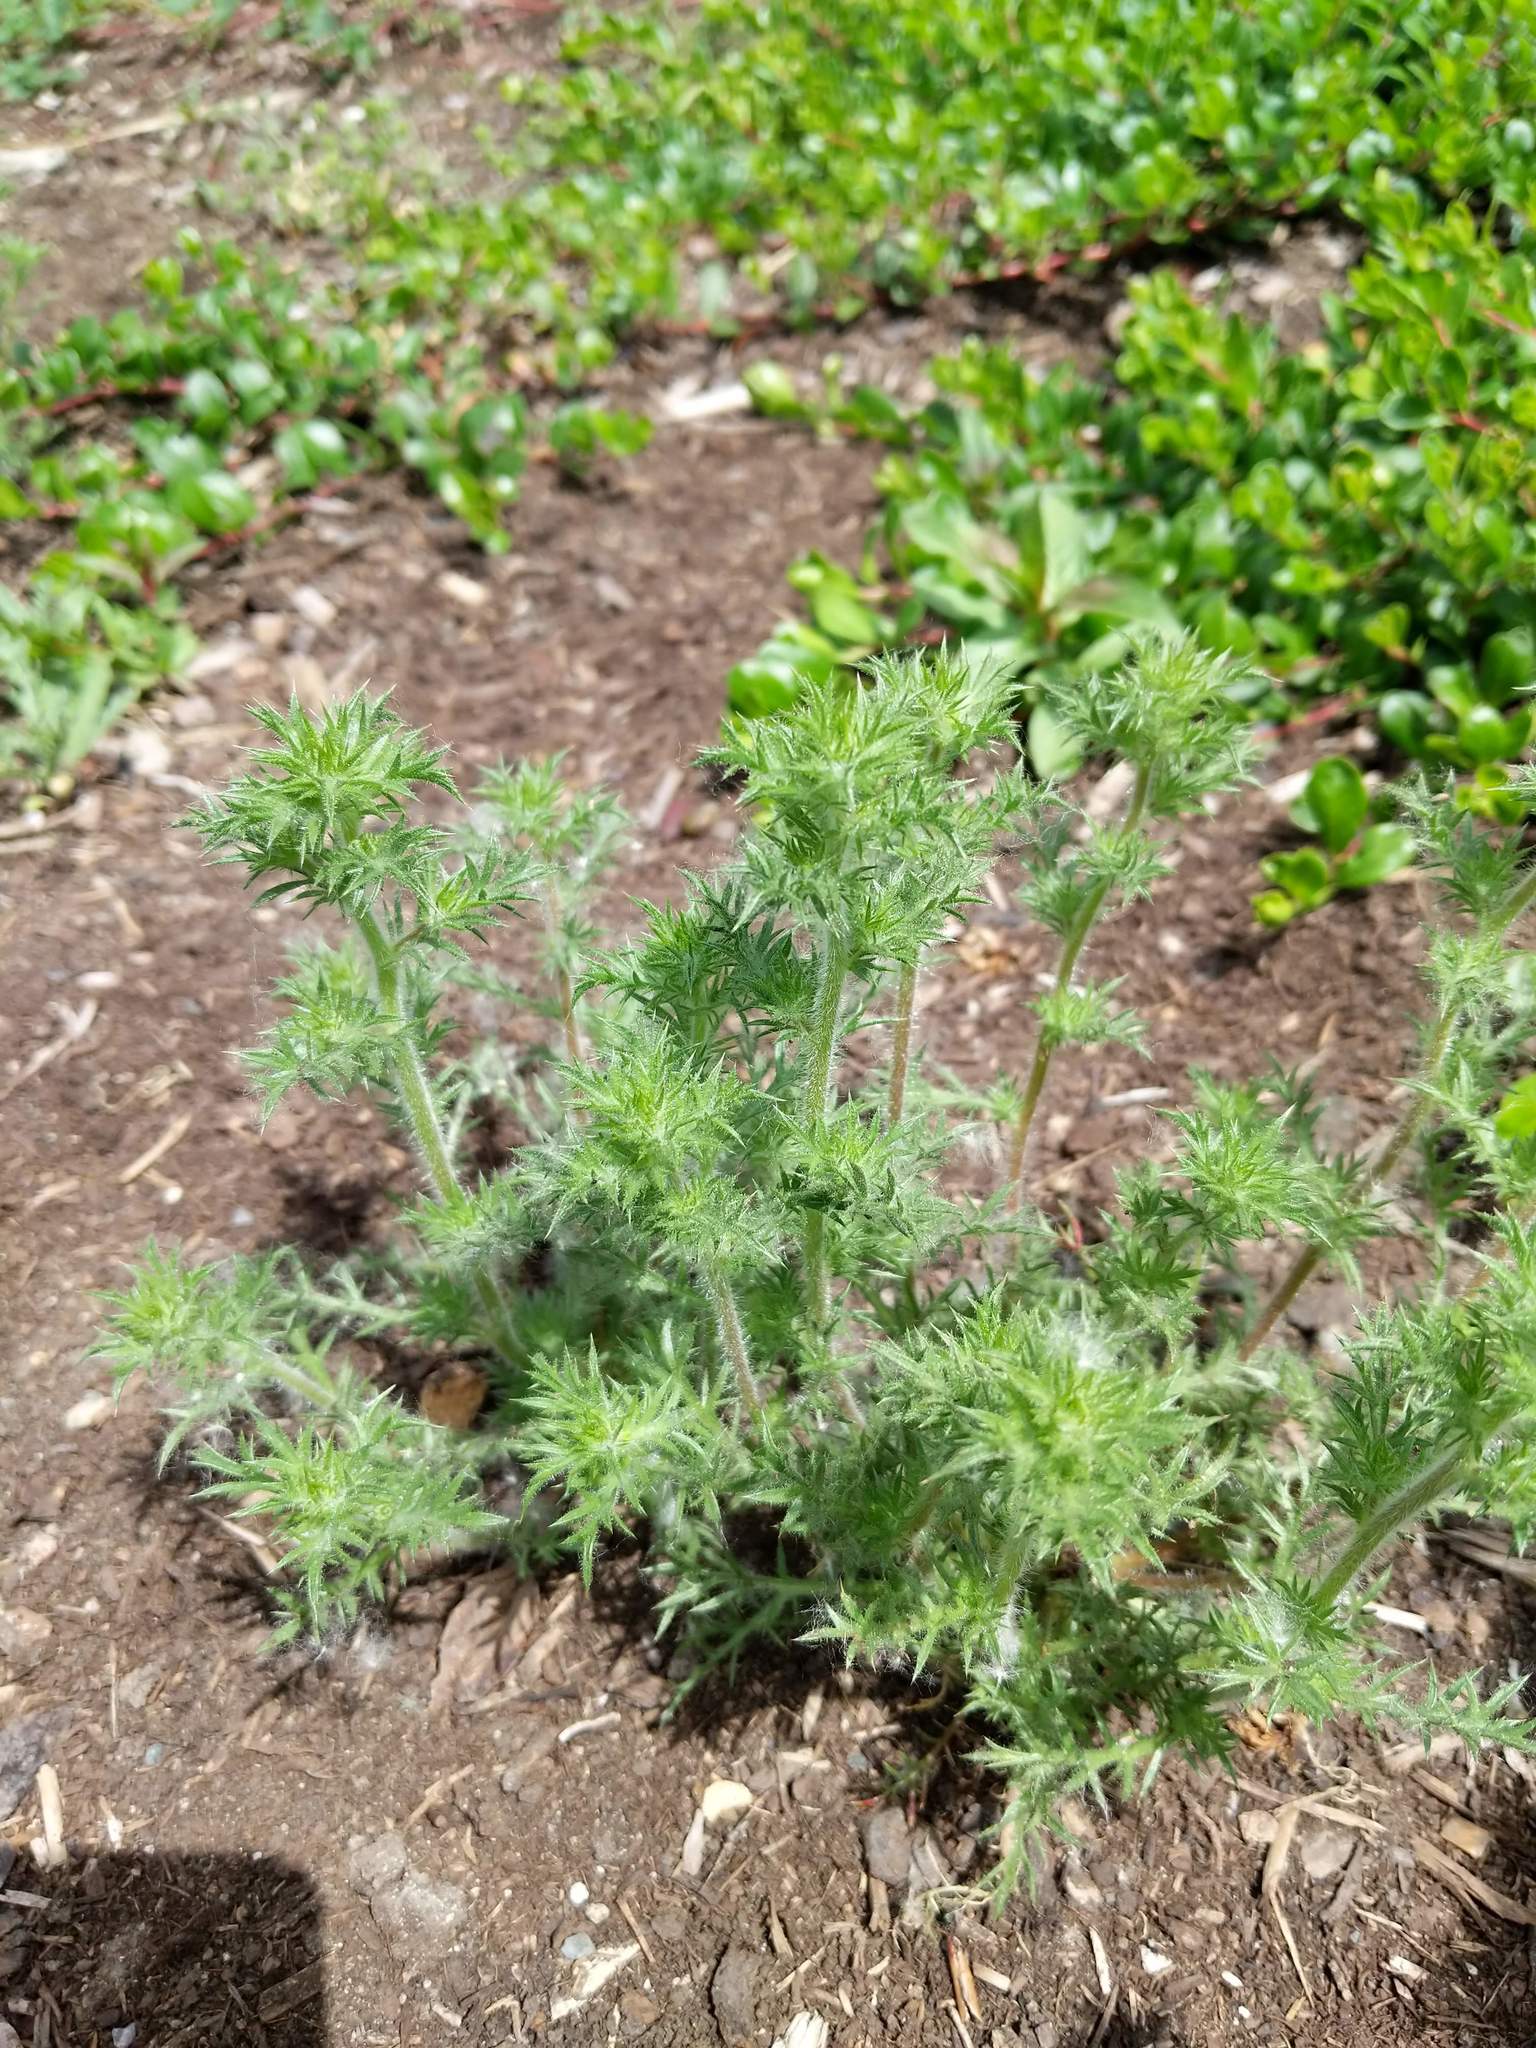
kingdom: Plantae
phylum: Tracheophyta
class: Magnoliopsida
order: Ericales
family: Polemoniaceae
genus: Navarretia
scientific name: Navarretia squarrosa
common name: Skunkweed
